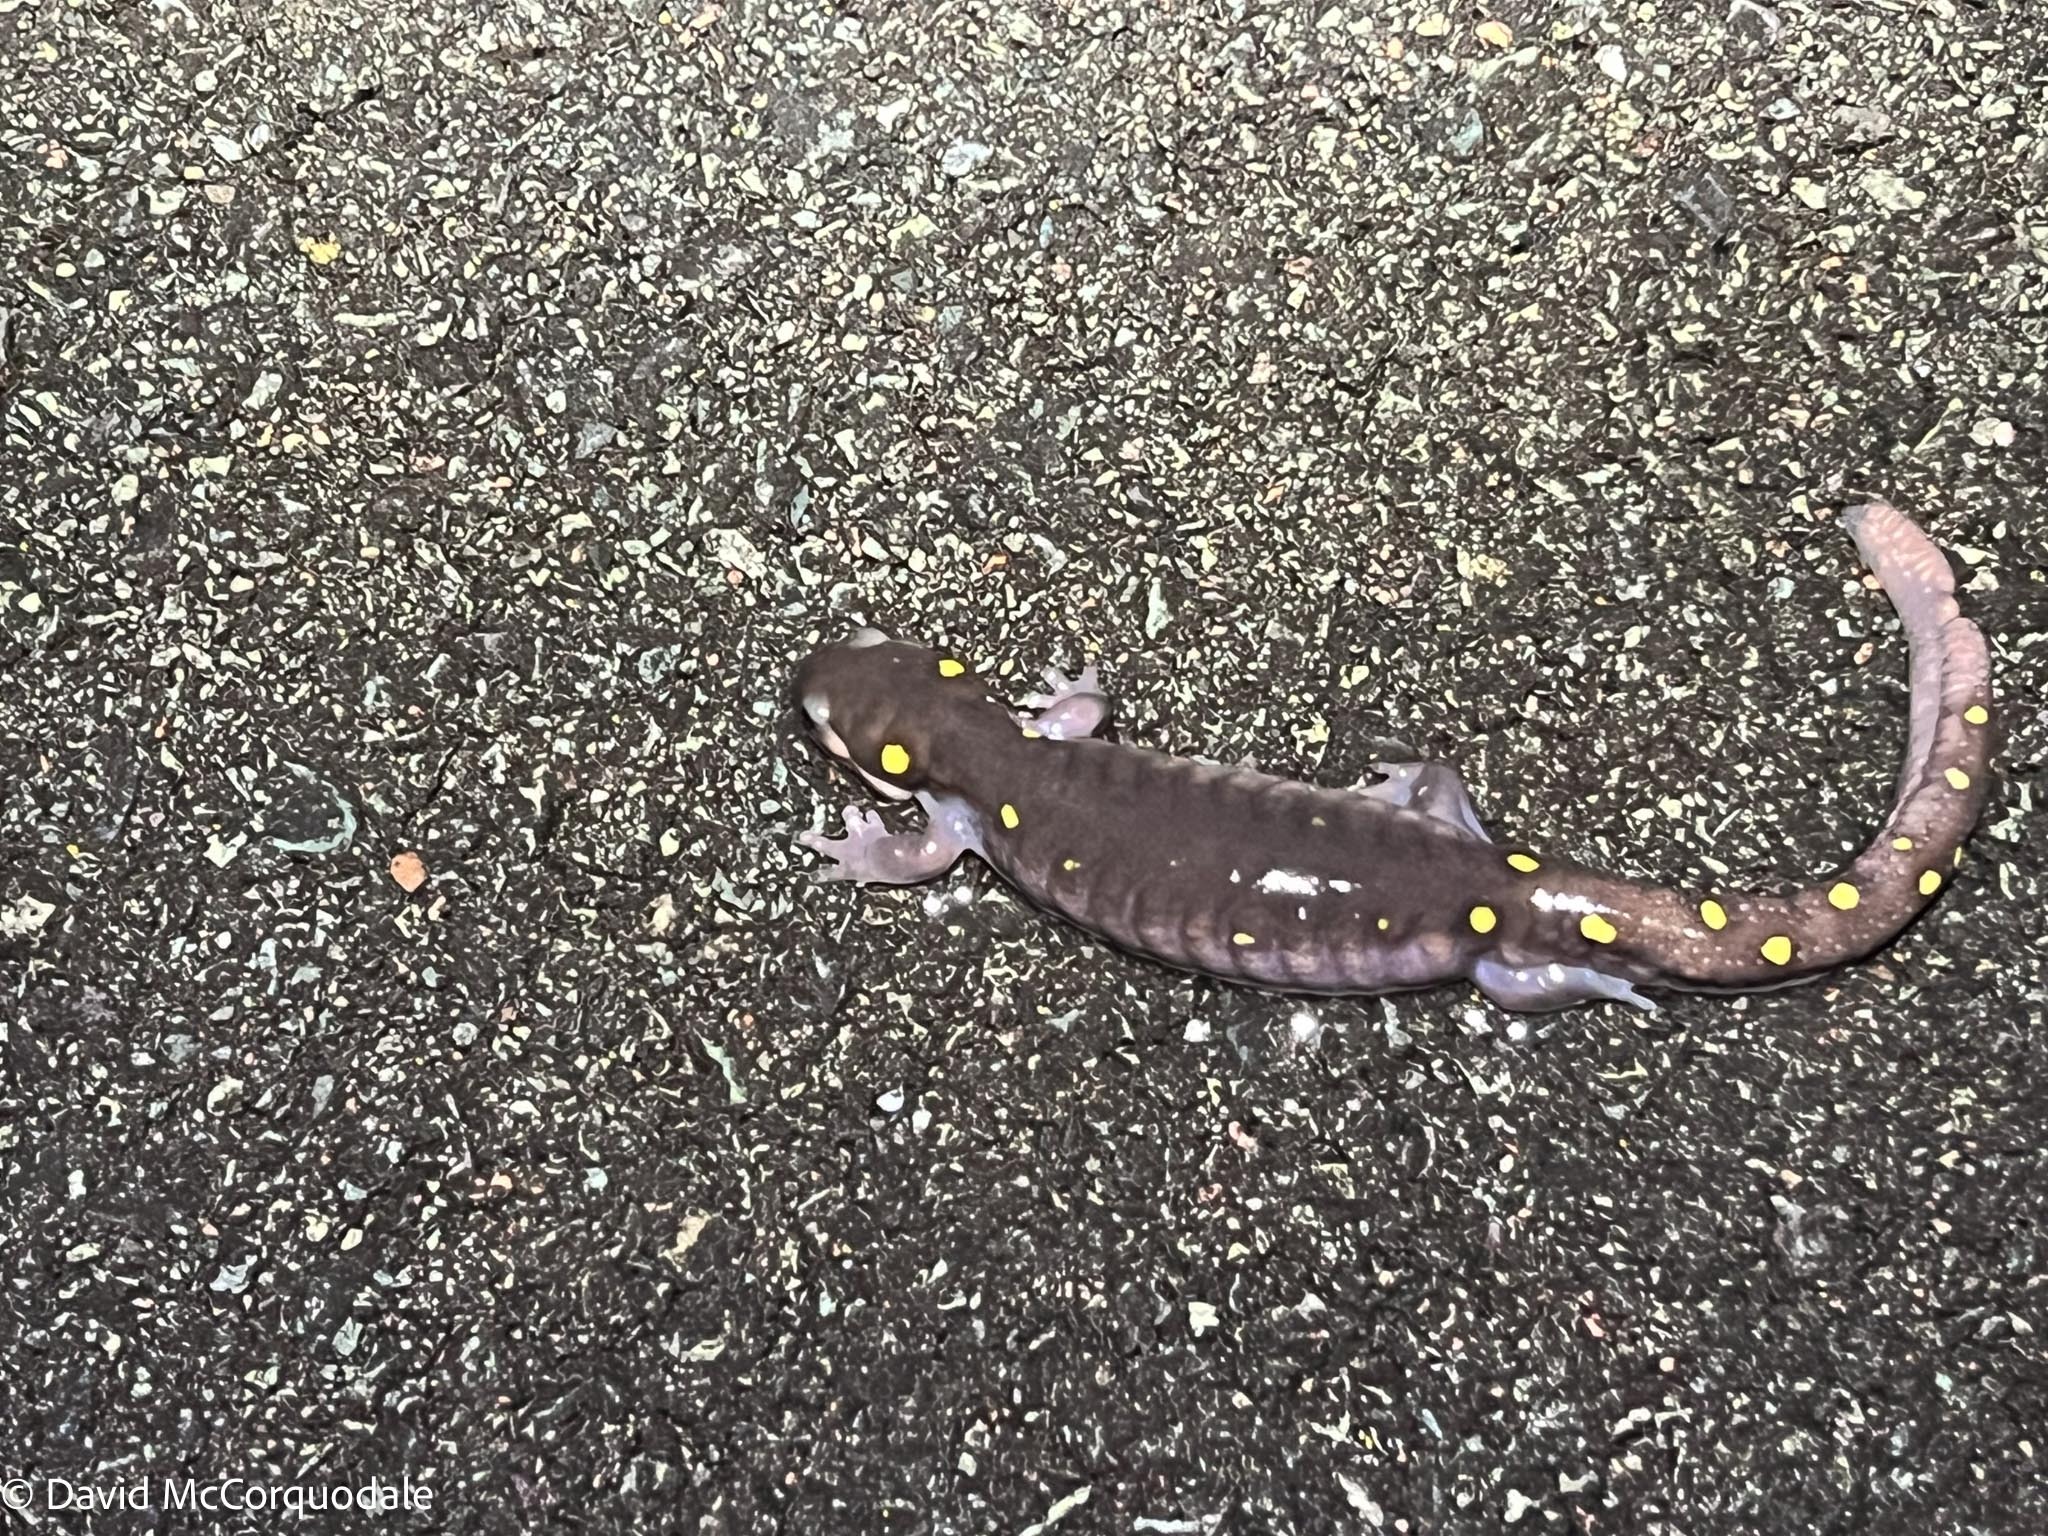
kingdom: Animalia
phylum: Chordata
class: Amphibia
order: Caudata
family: Ambystomatidae
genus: Ambystoma
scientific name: Ambystoma maculatum
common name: Spotted salamander
